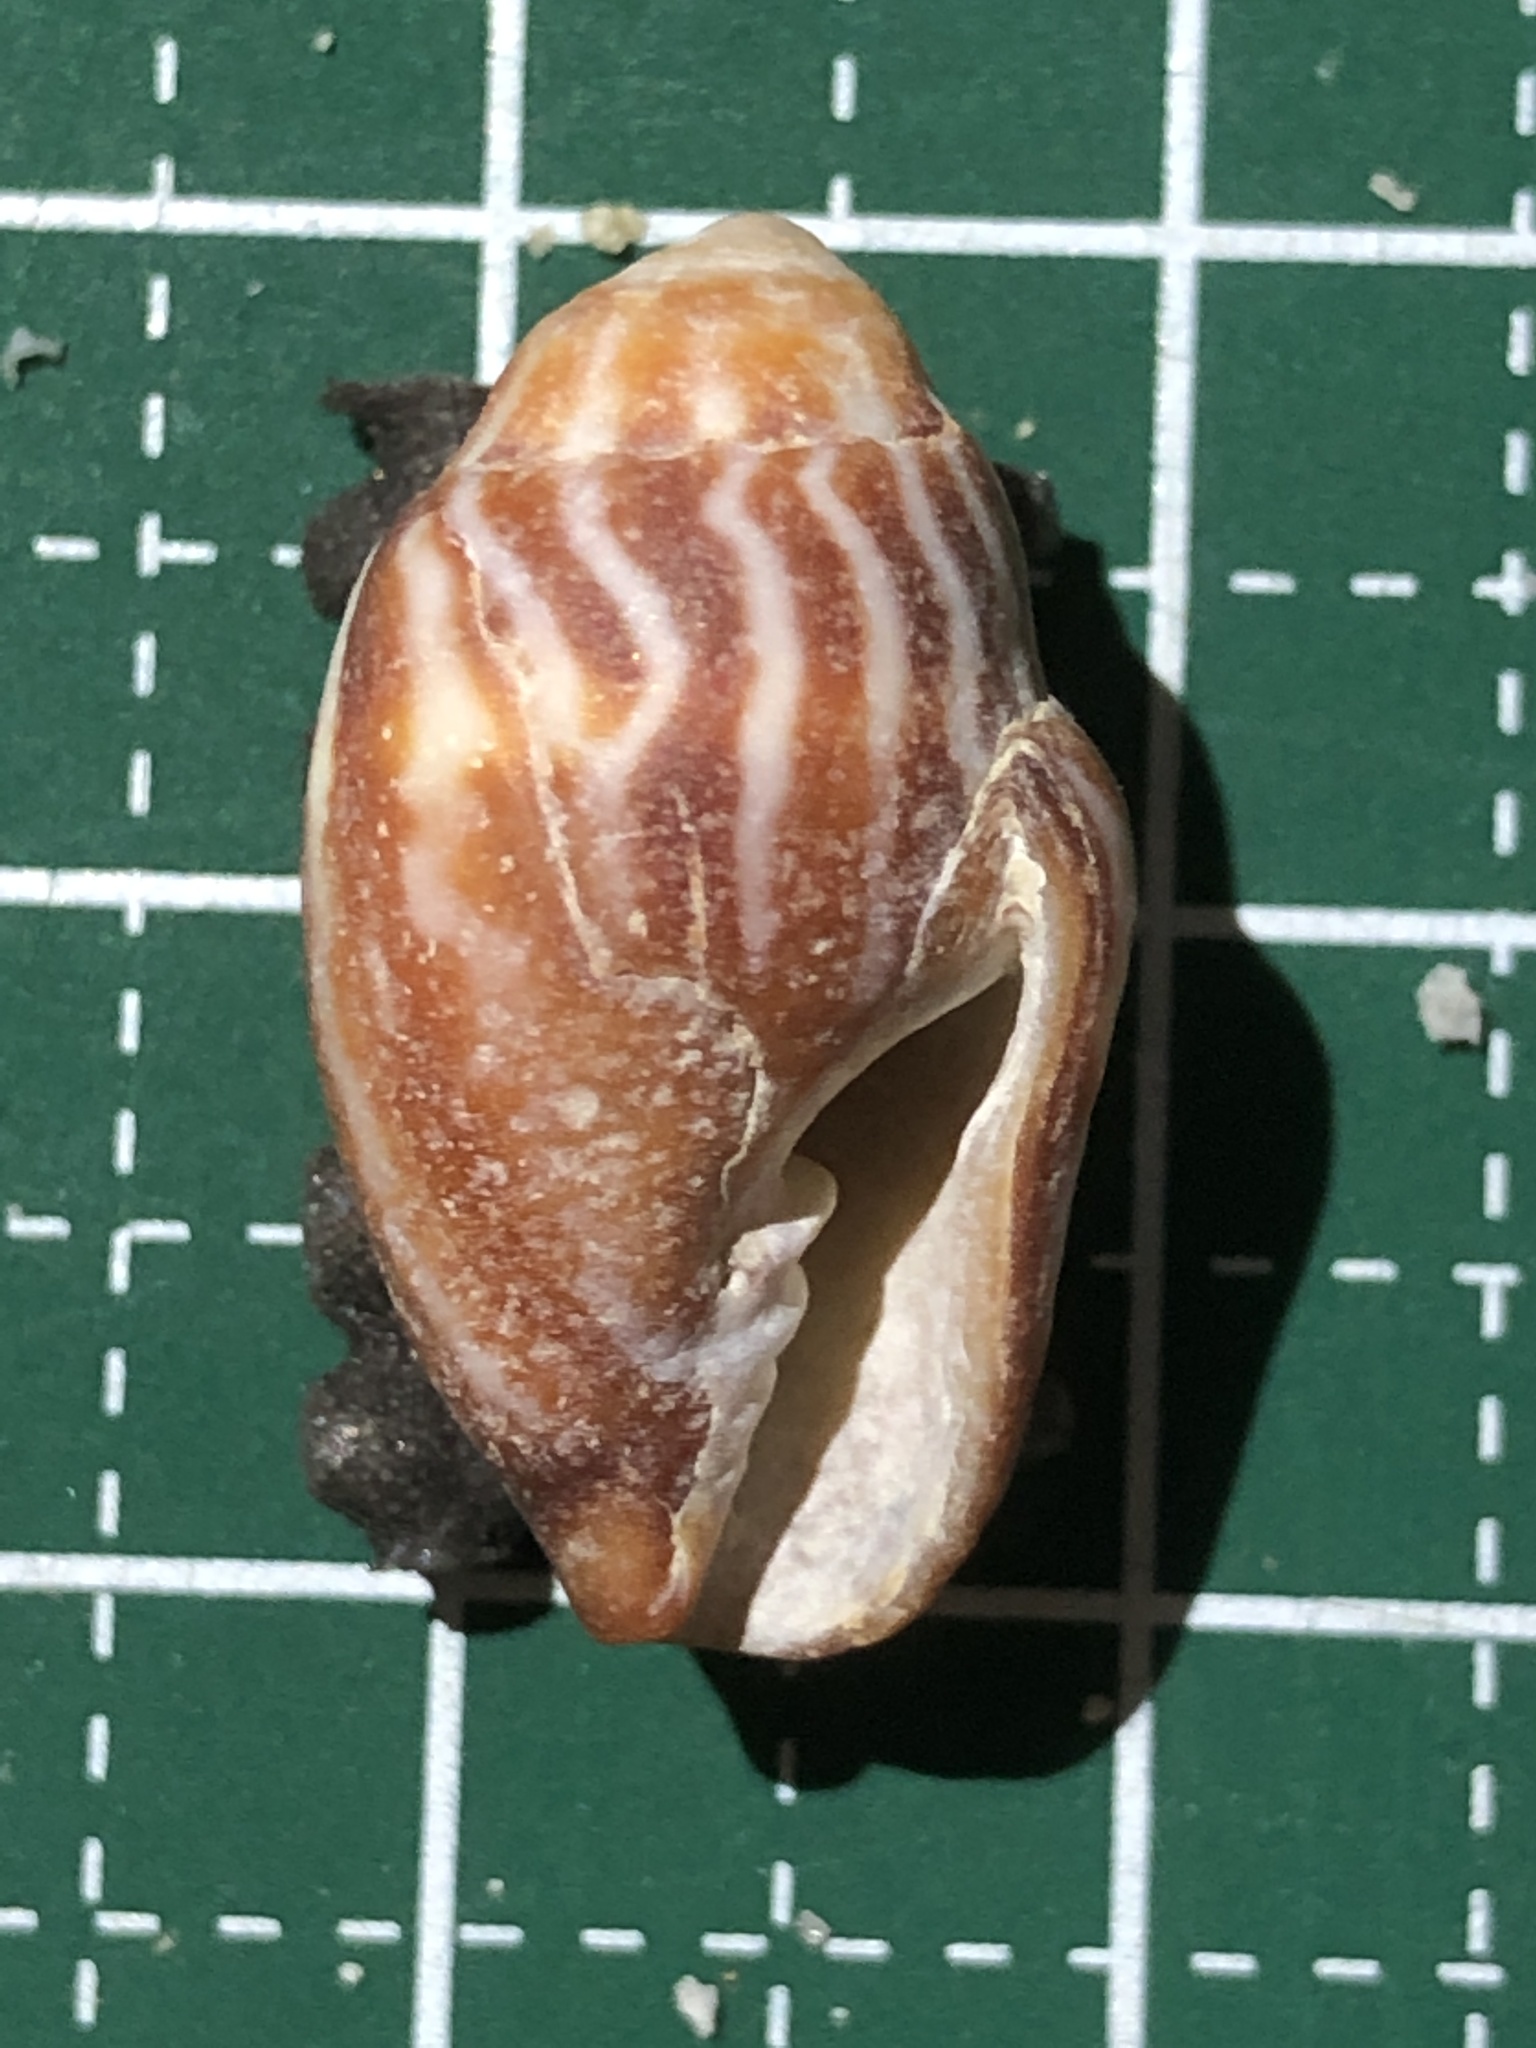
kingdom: Animalia
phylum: Mollusca
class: Gastropoda
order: Neogastropoda
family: Mitridae
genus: Strigatella
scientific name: Strigatella retusa
